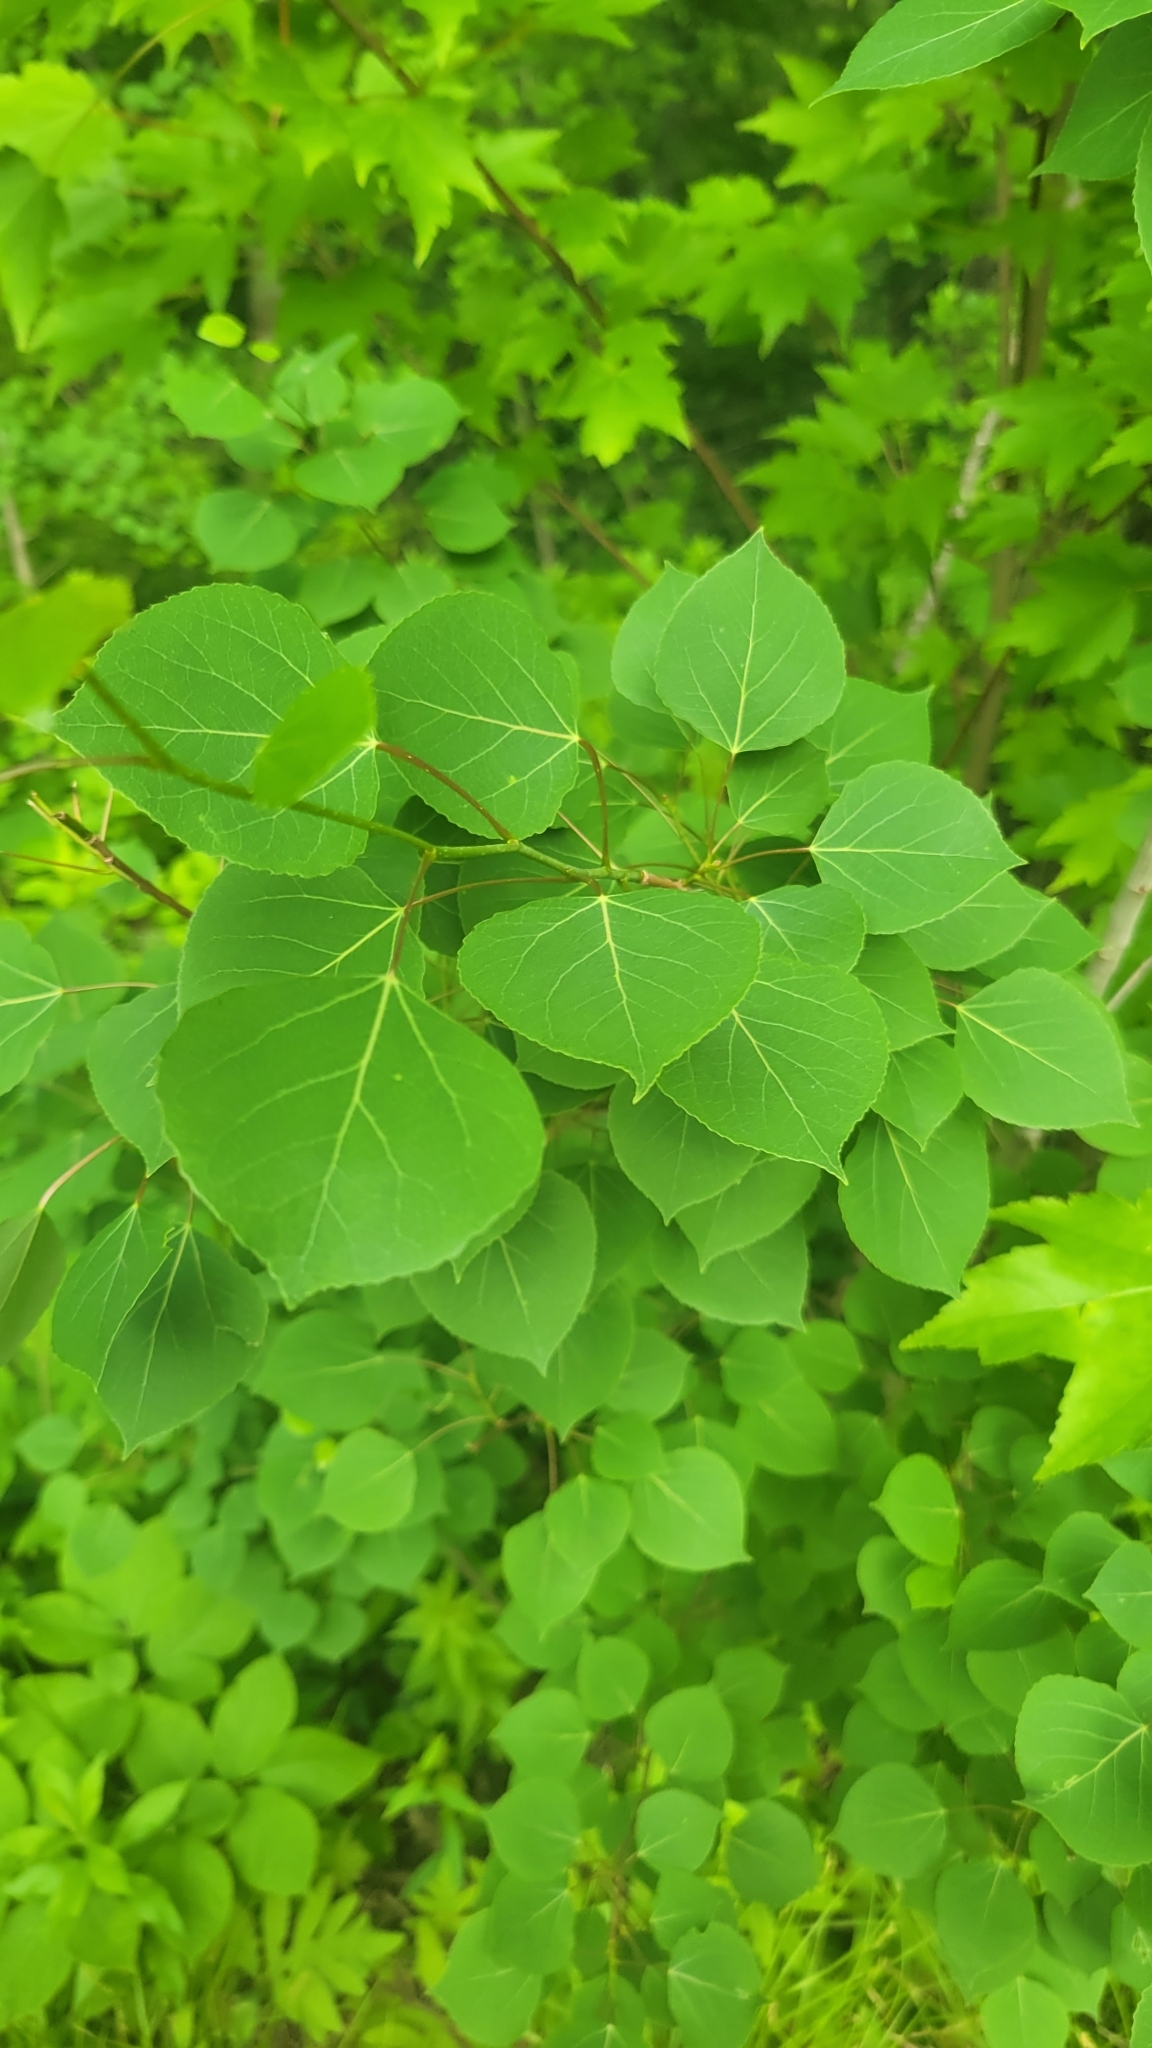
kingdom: Plantae
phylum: Tracheophyta
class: Magnoliopsida
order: Malpighiales
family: Salicaceae
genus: Populus
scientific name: Populus tremuloides
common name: Quaking aspen
